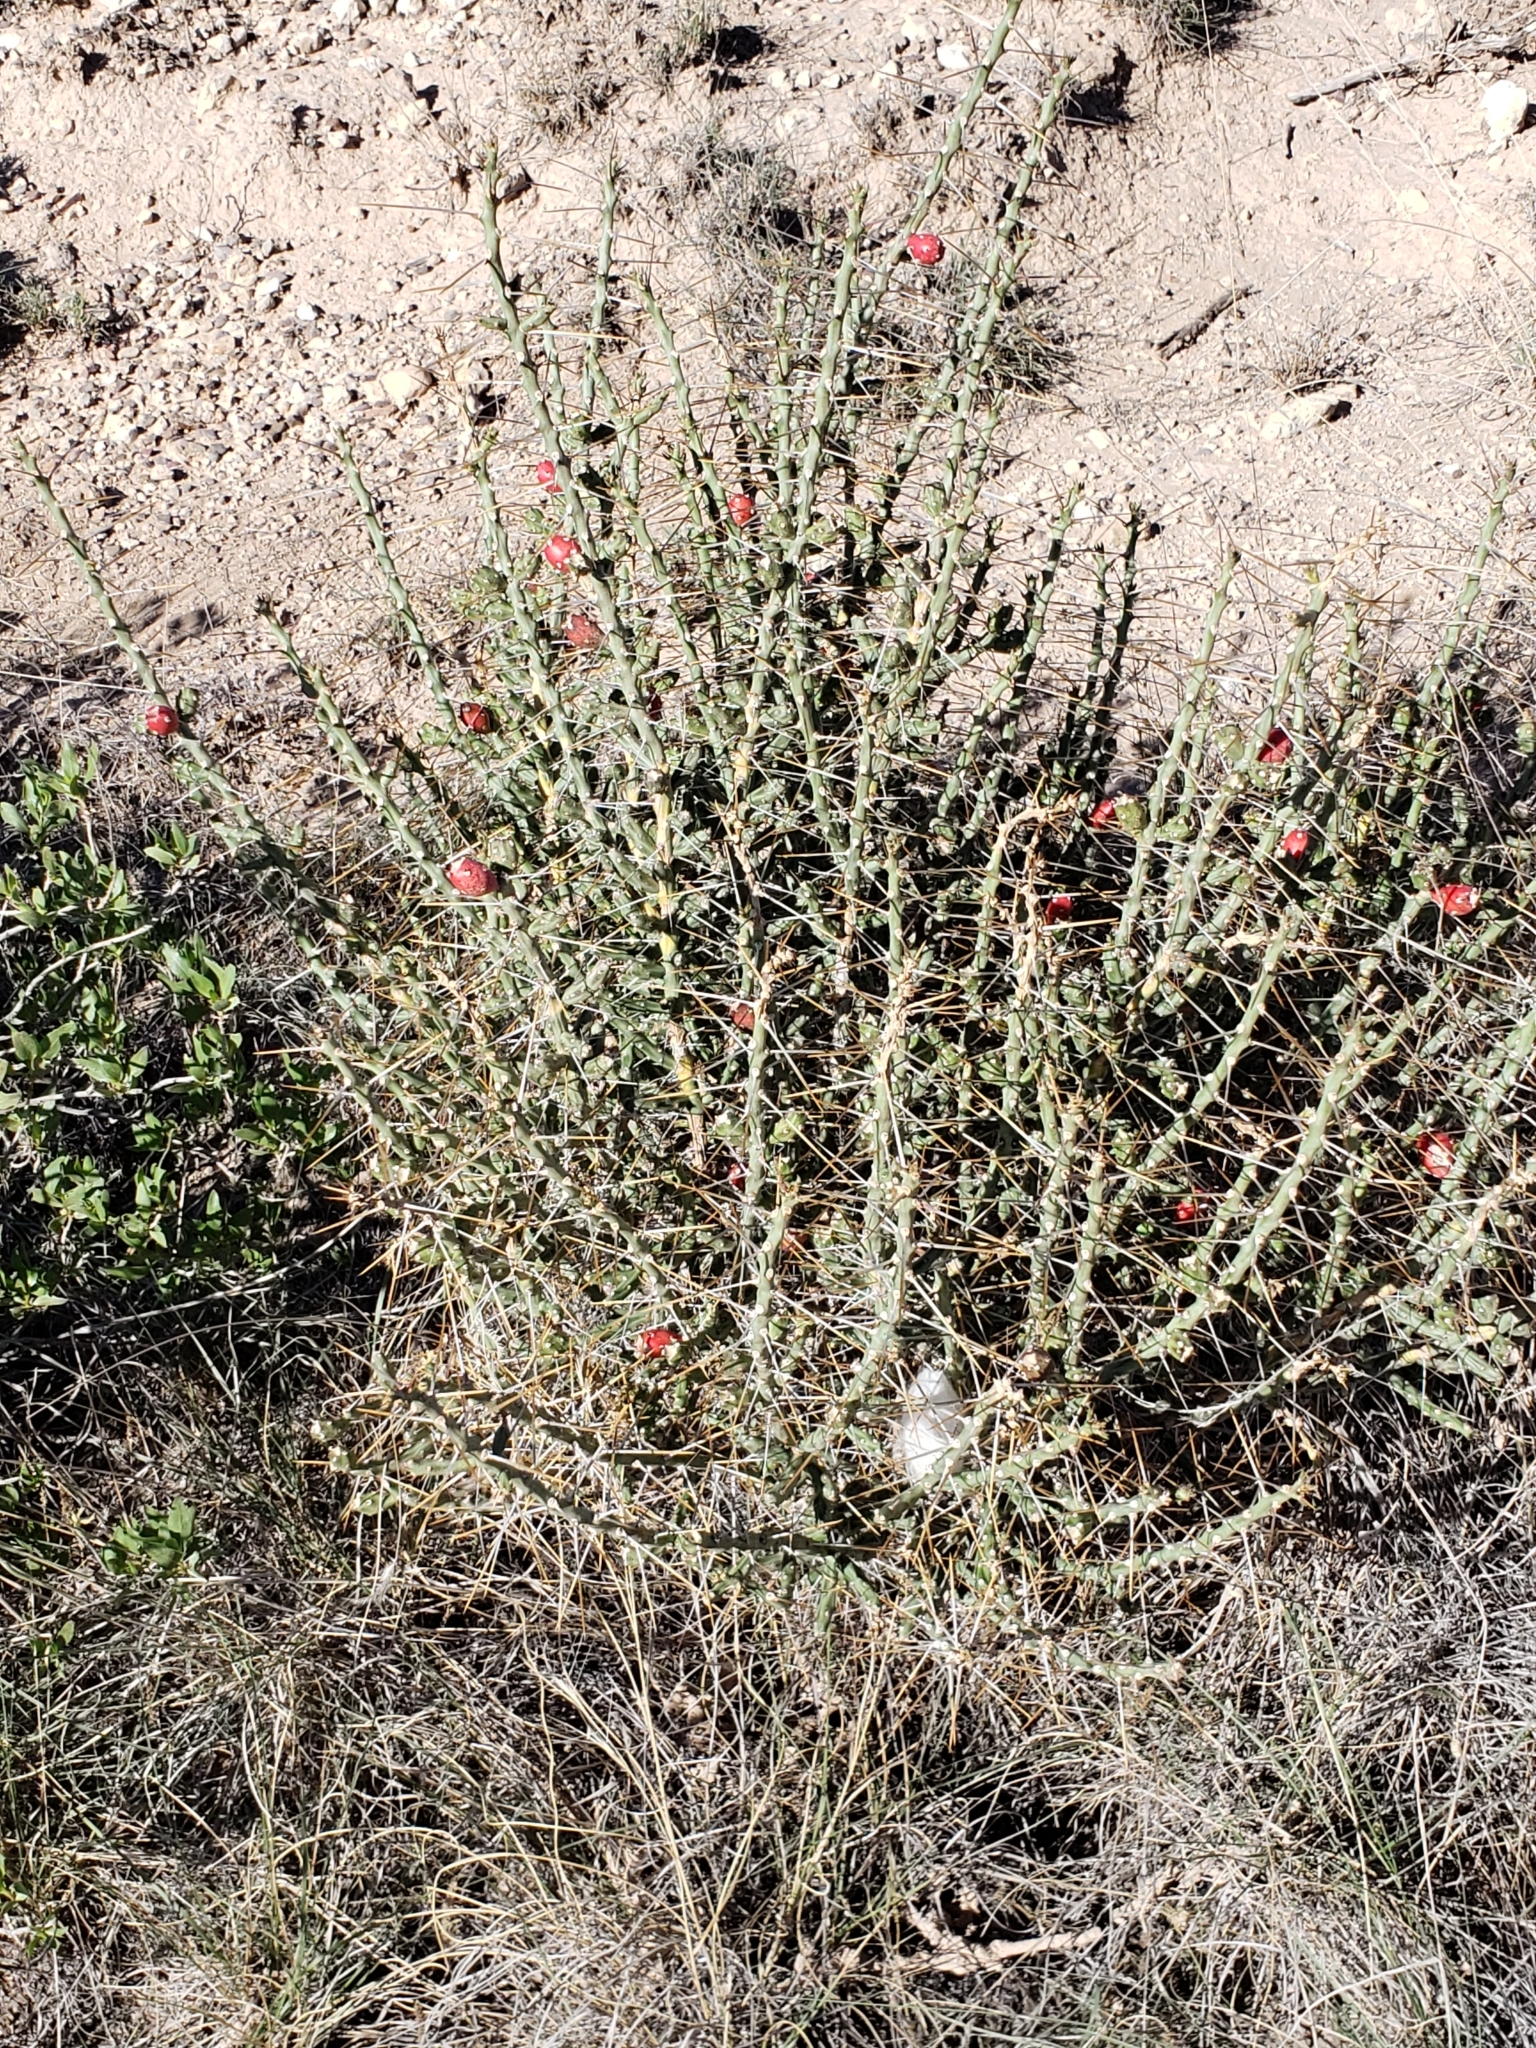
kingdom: Plantae
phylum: Tracheophyta
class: Magnoliopsida
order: Caryophyllales
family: Cactaceae
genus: Cylindropuntia
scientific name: Cylindropuntia leptocaulis
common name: Christmas cactus
